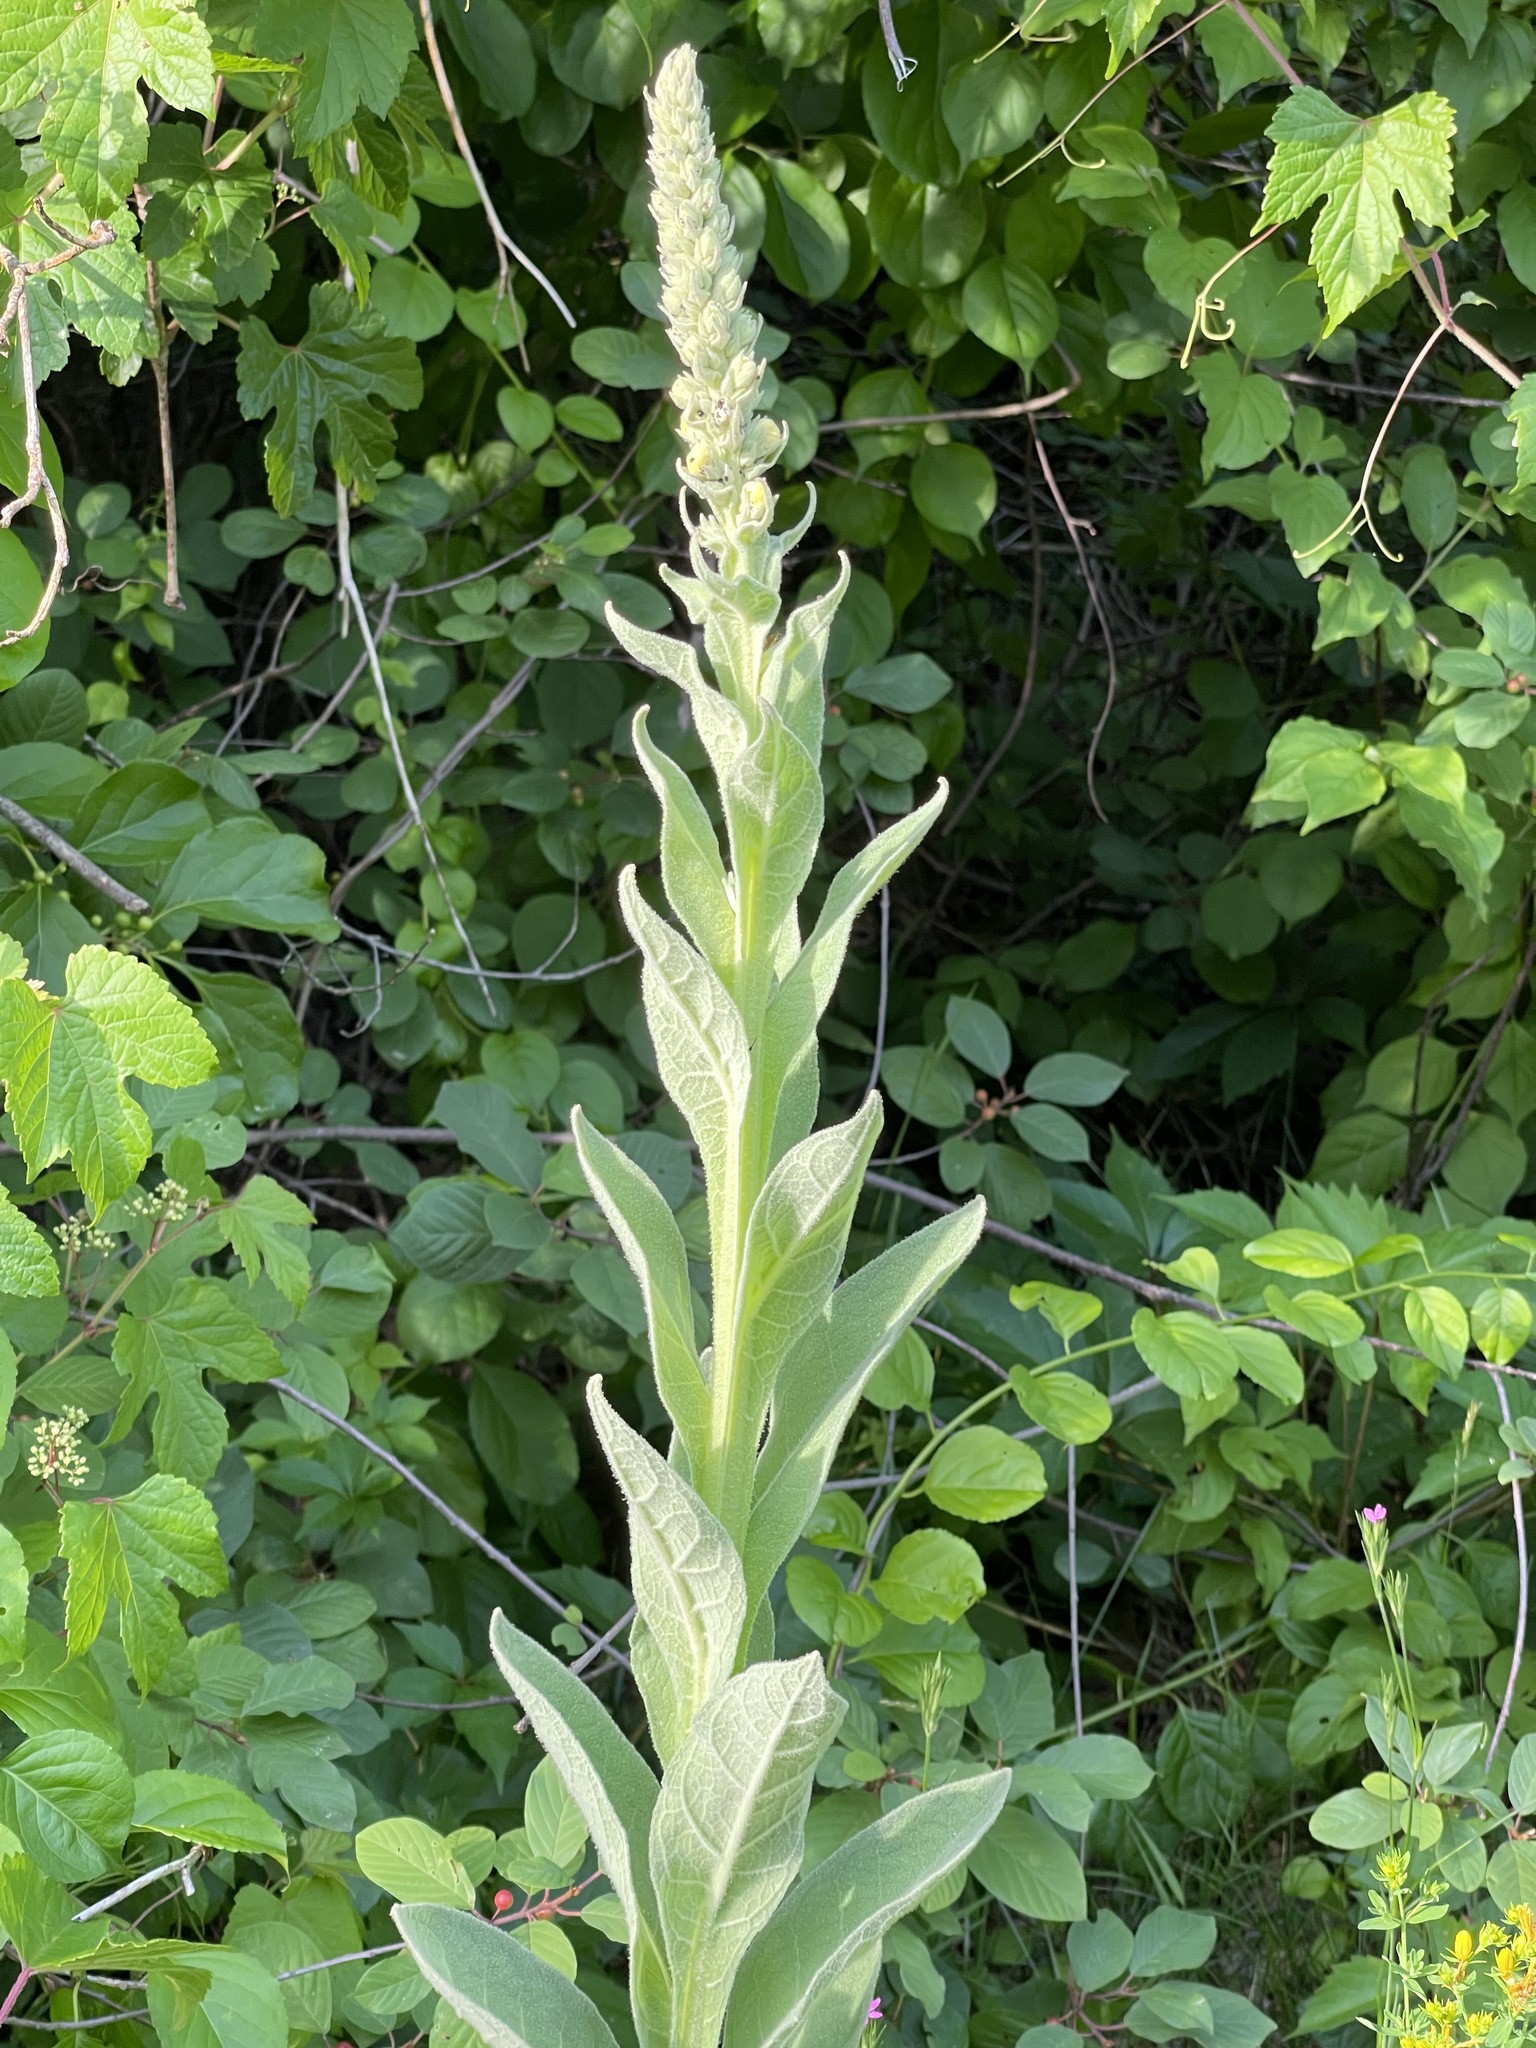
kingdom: Plantae
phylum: Tracheophyta
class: Magnoliopsida
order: Lamiales
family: Scrophulariaceae
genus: Verbascum
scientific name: Verbascum thapsus
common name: Common mullein
